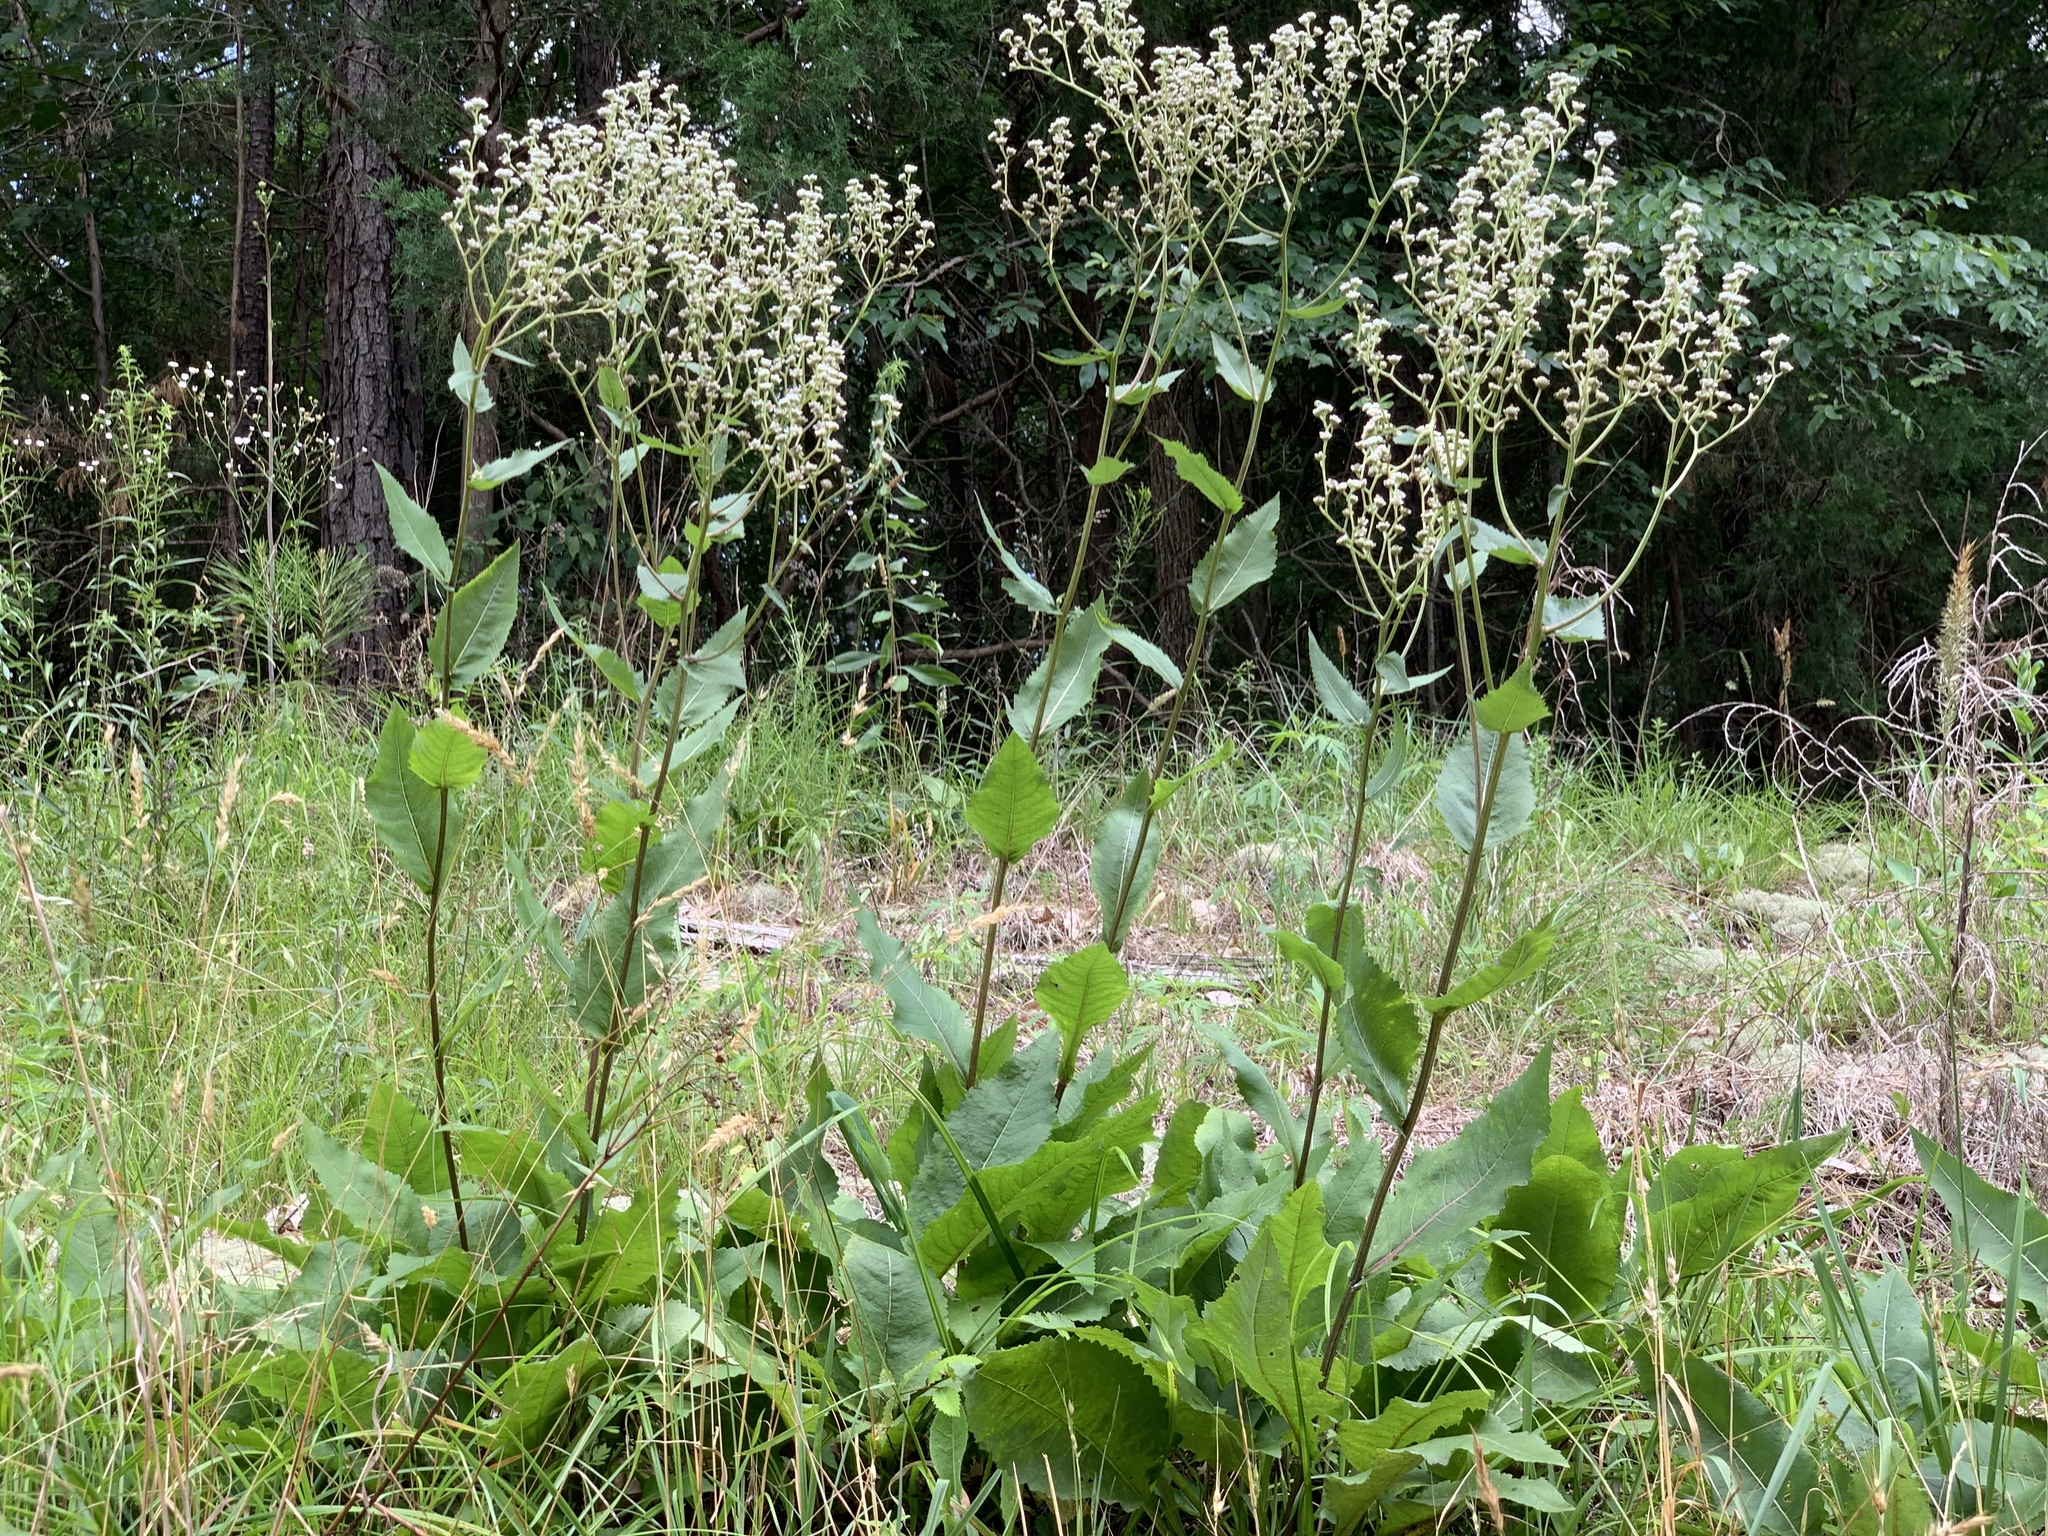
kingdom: Plantae
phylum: Tracheophyta
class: Magnoliopsida
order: Asterales
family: Asteraceae
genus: Parthenium
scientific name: Parthenium integrifolium
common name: American feverfew
